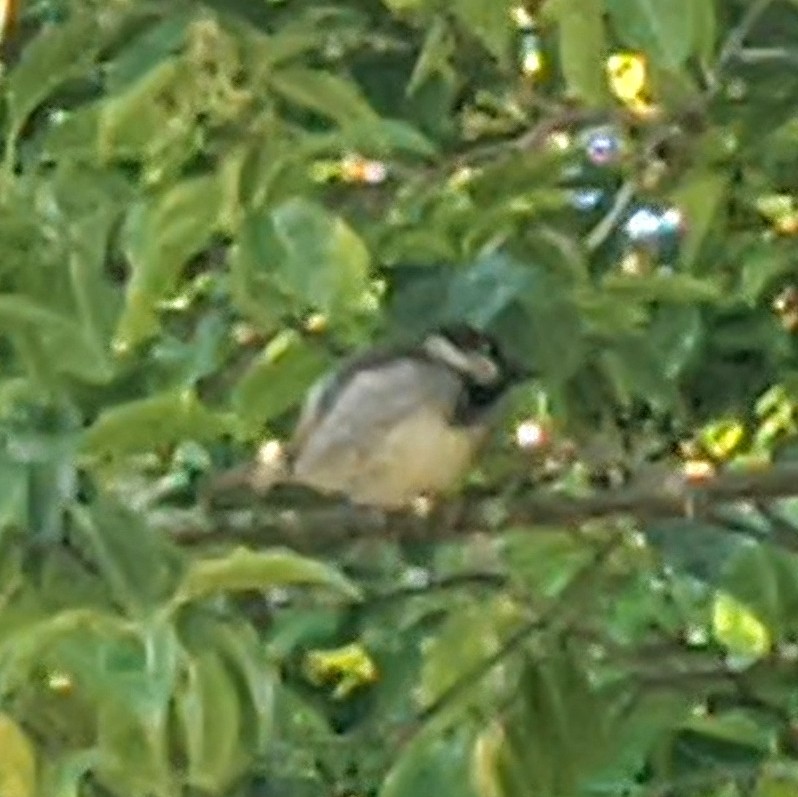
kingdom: Animalia
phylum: Chordata
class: Aves
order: Passeriformes
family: Passeridae
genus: Passer
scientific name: Passer domesticus
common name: House sparrow
